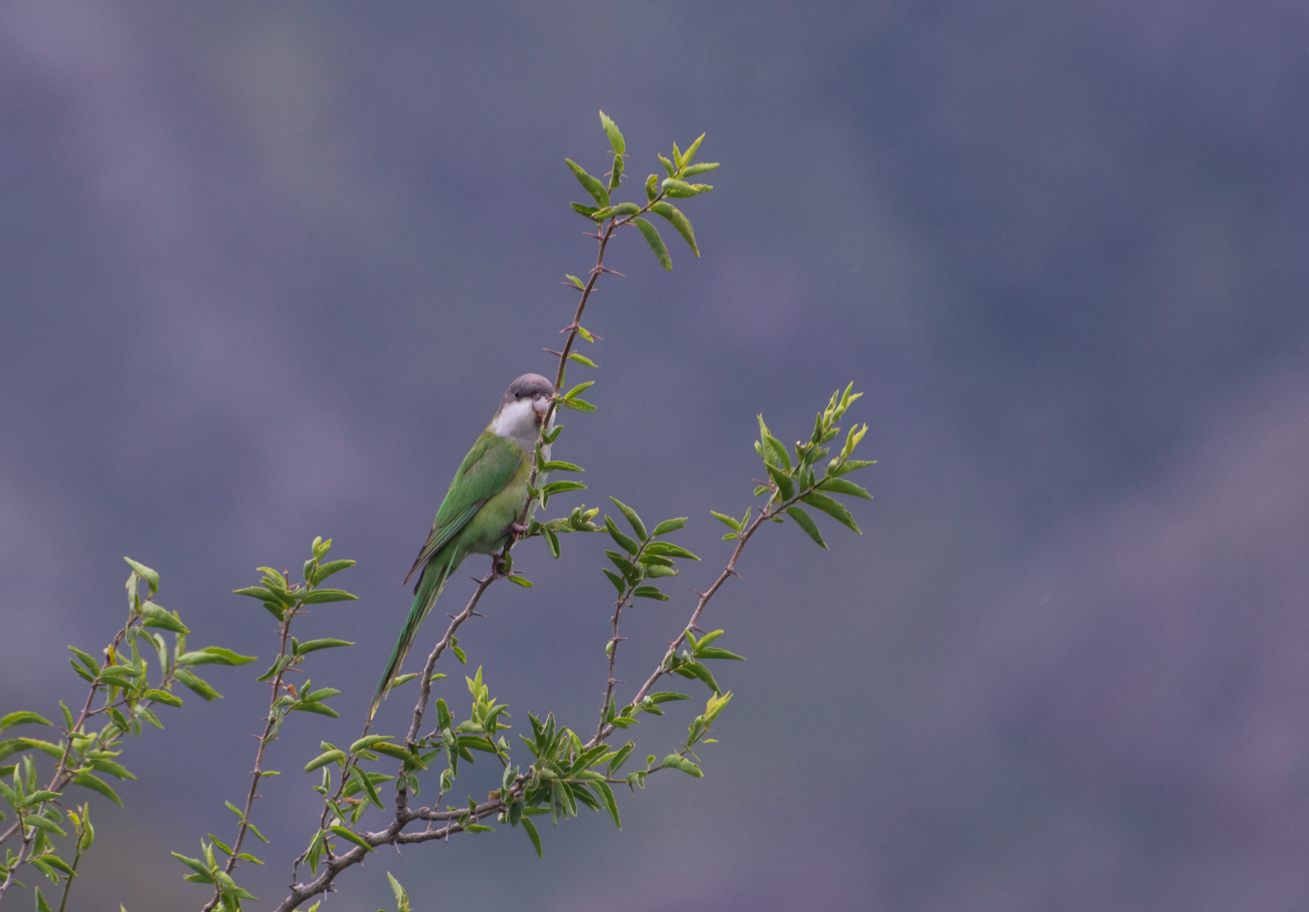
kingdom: Animalia
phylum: Chordata
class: Aves
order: Psittaciformes
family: Psittacidae
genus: Psilopsiagon
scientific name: Psilopsiagon aymara
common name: Grey-hooded parakeet
